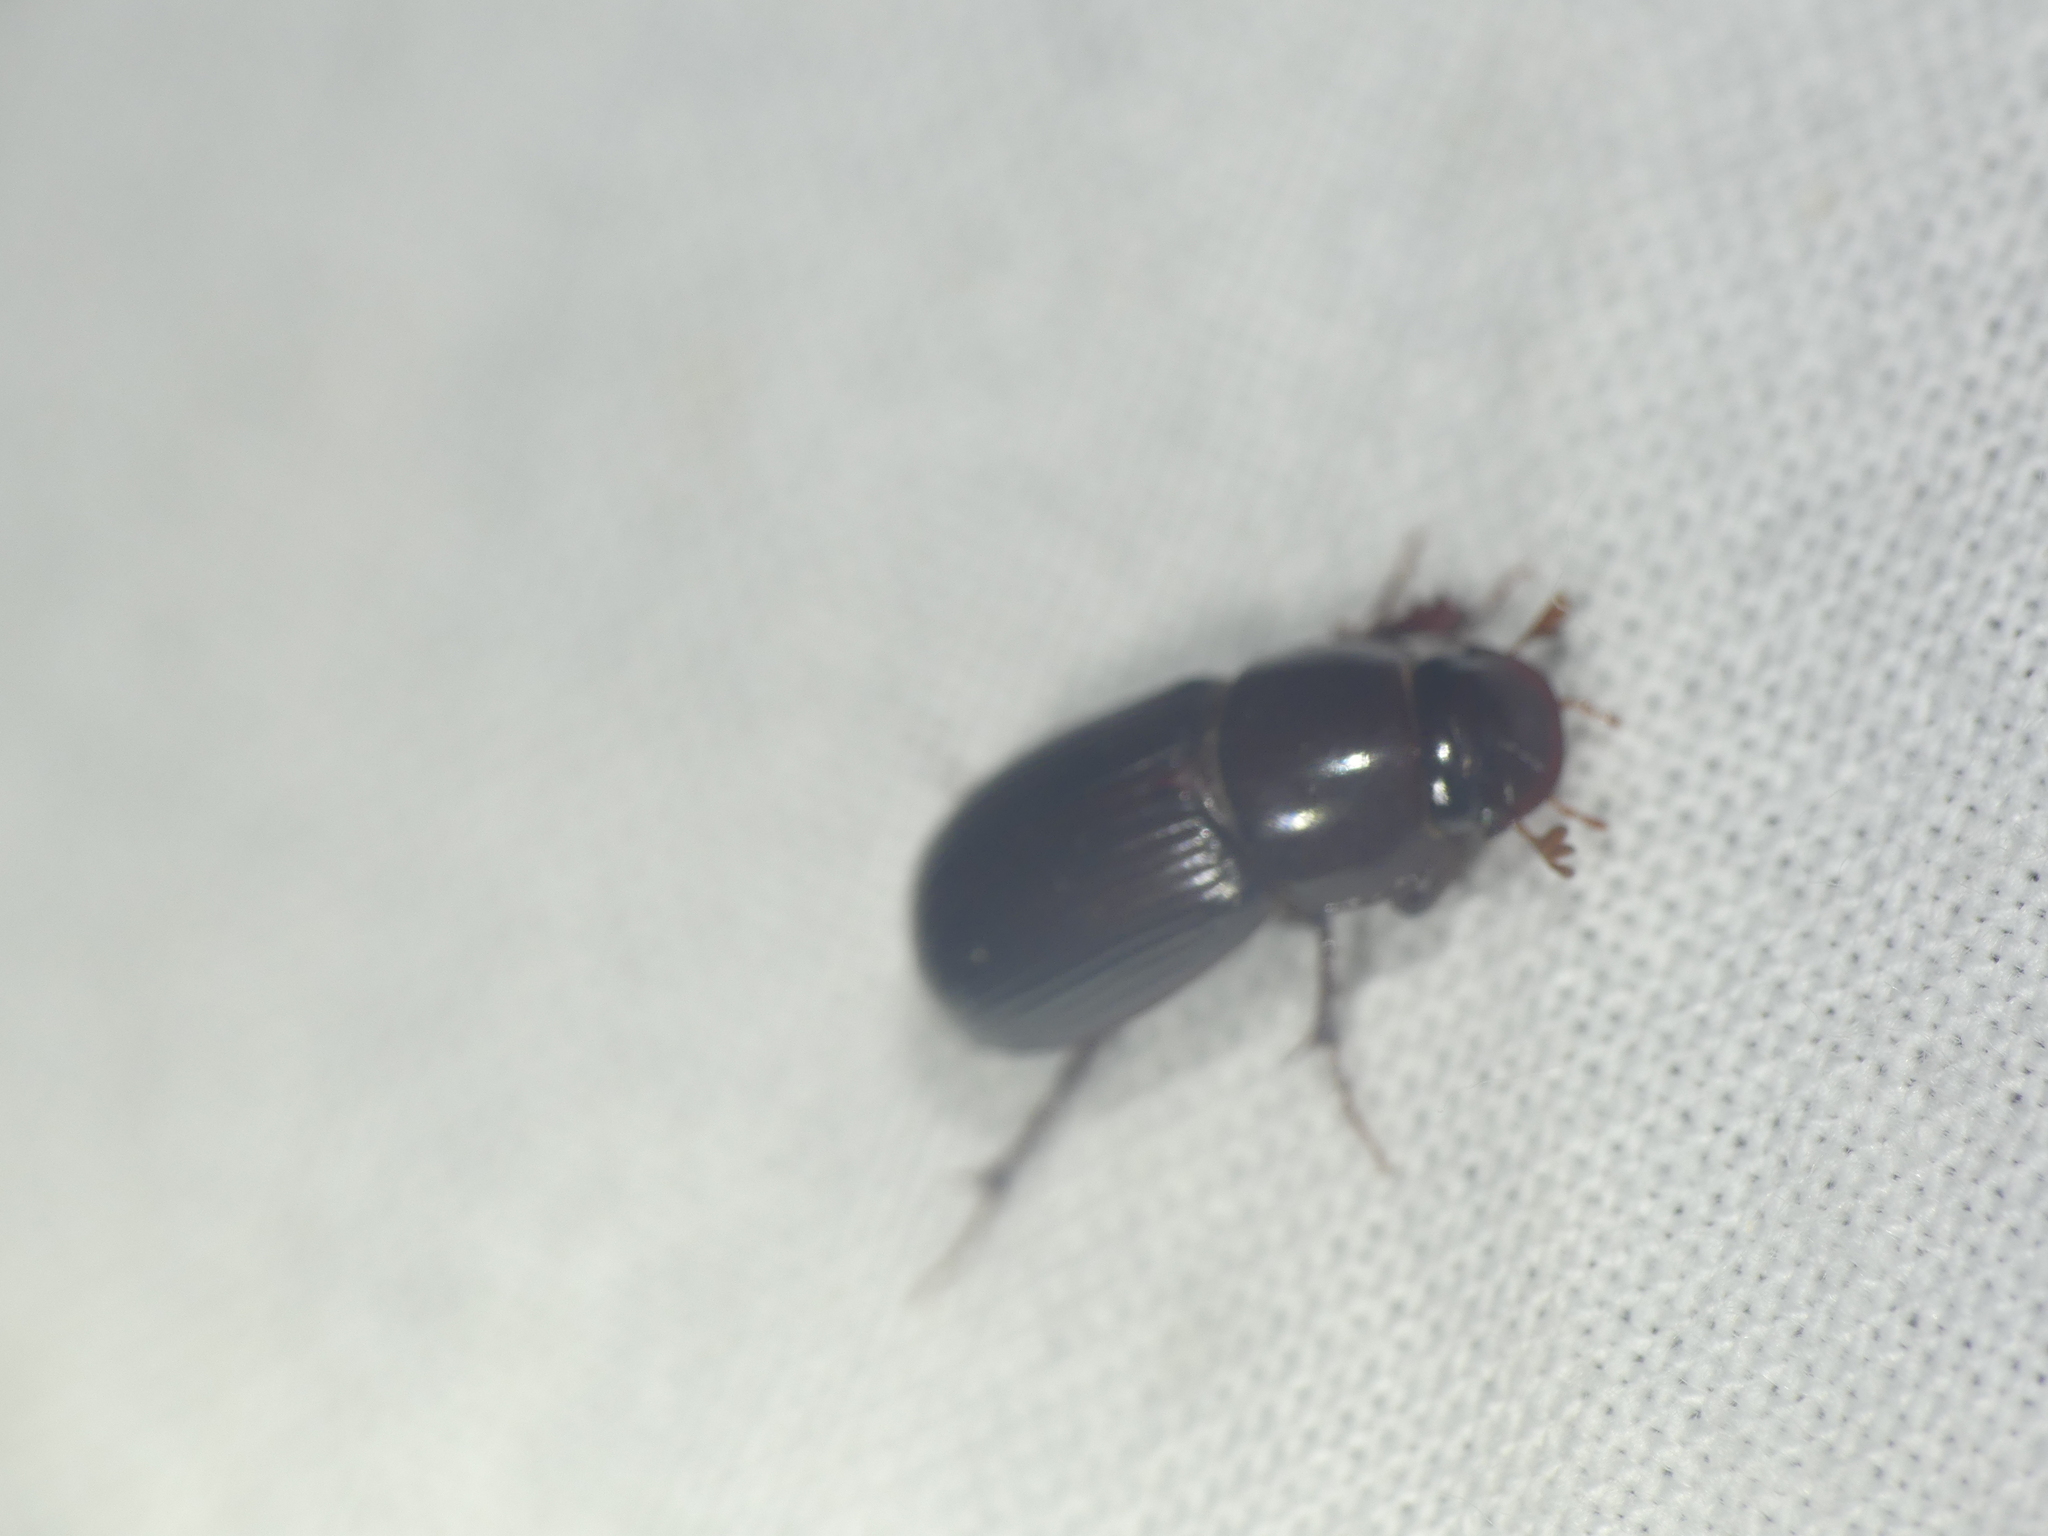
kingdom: Animalia
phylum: Arthropoda
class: Insecta
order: Coleoptera
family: Scarabaeidae
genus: Acrossus
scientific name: Acrossus rufipes
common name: Night-flying dung beetle
